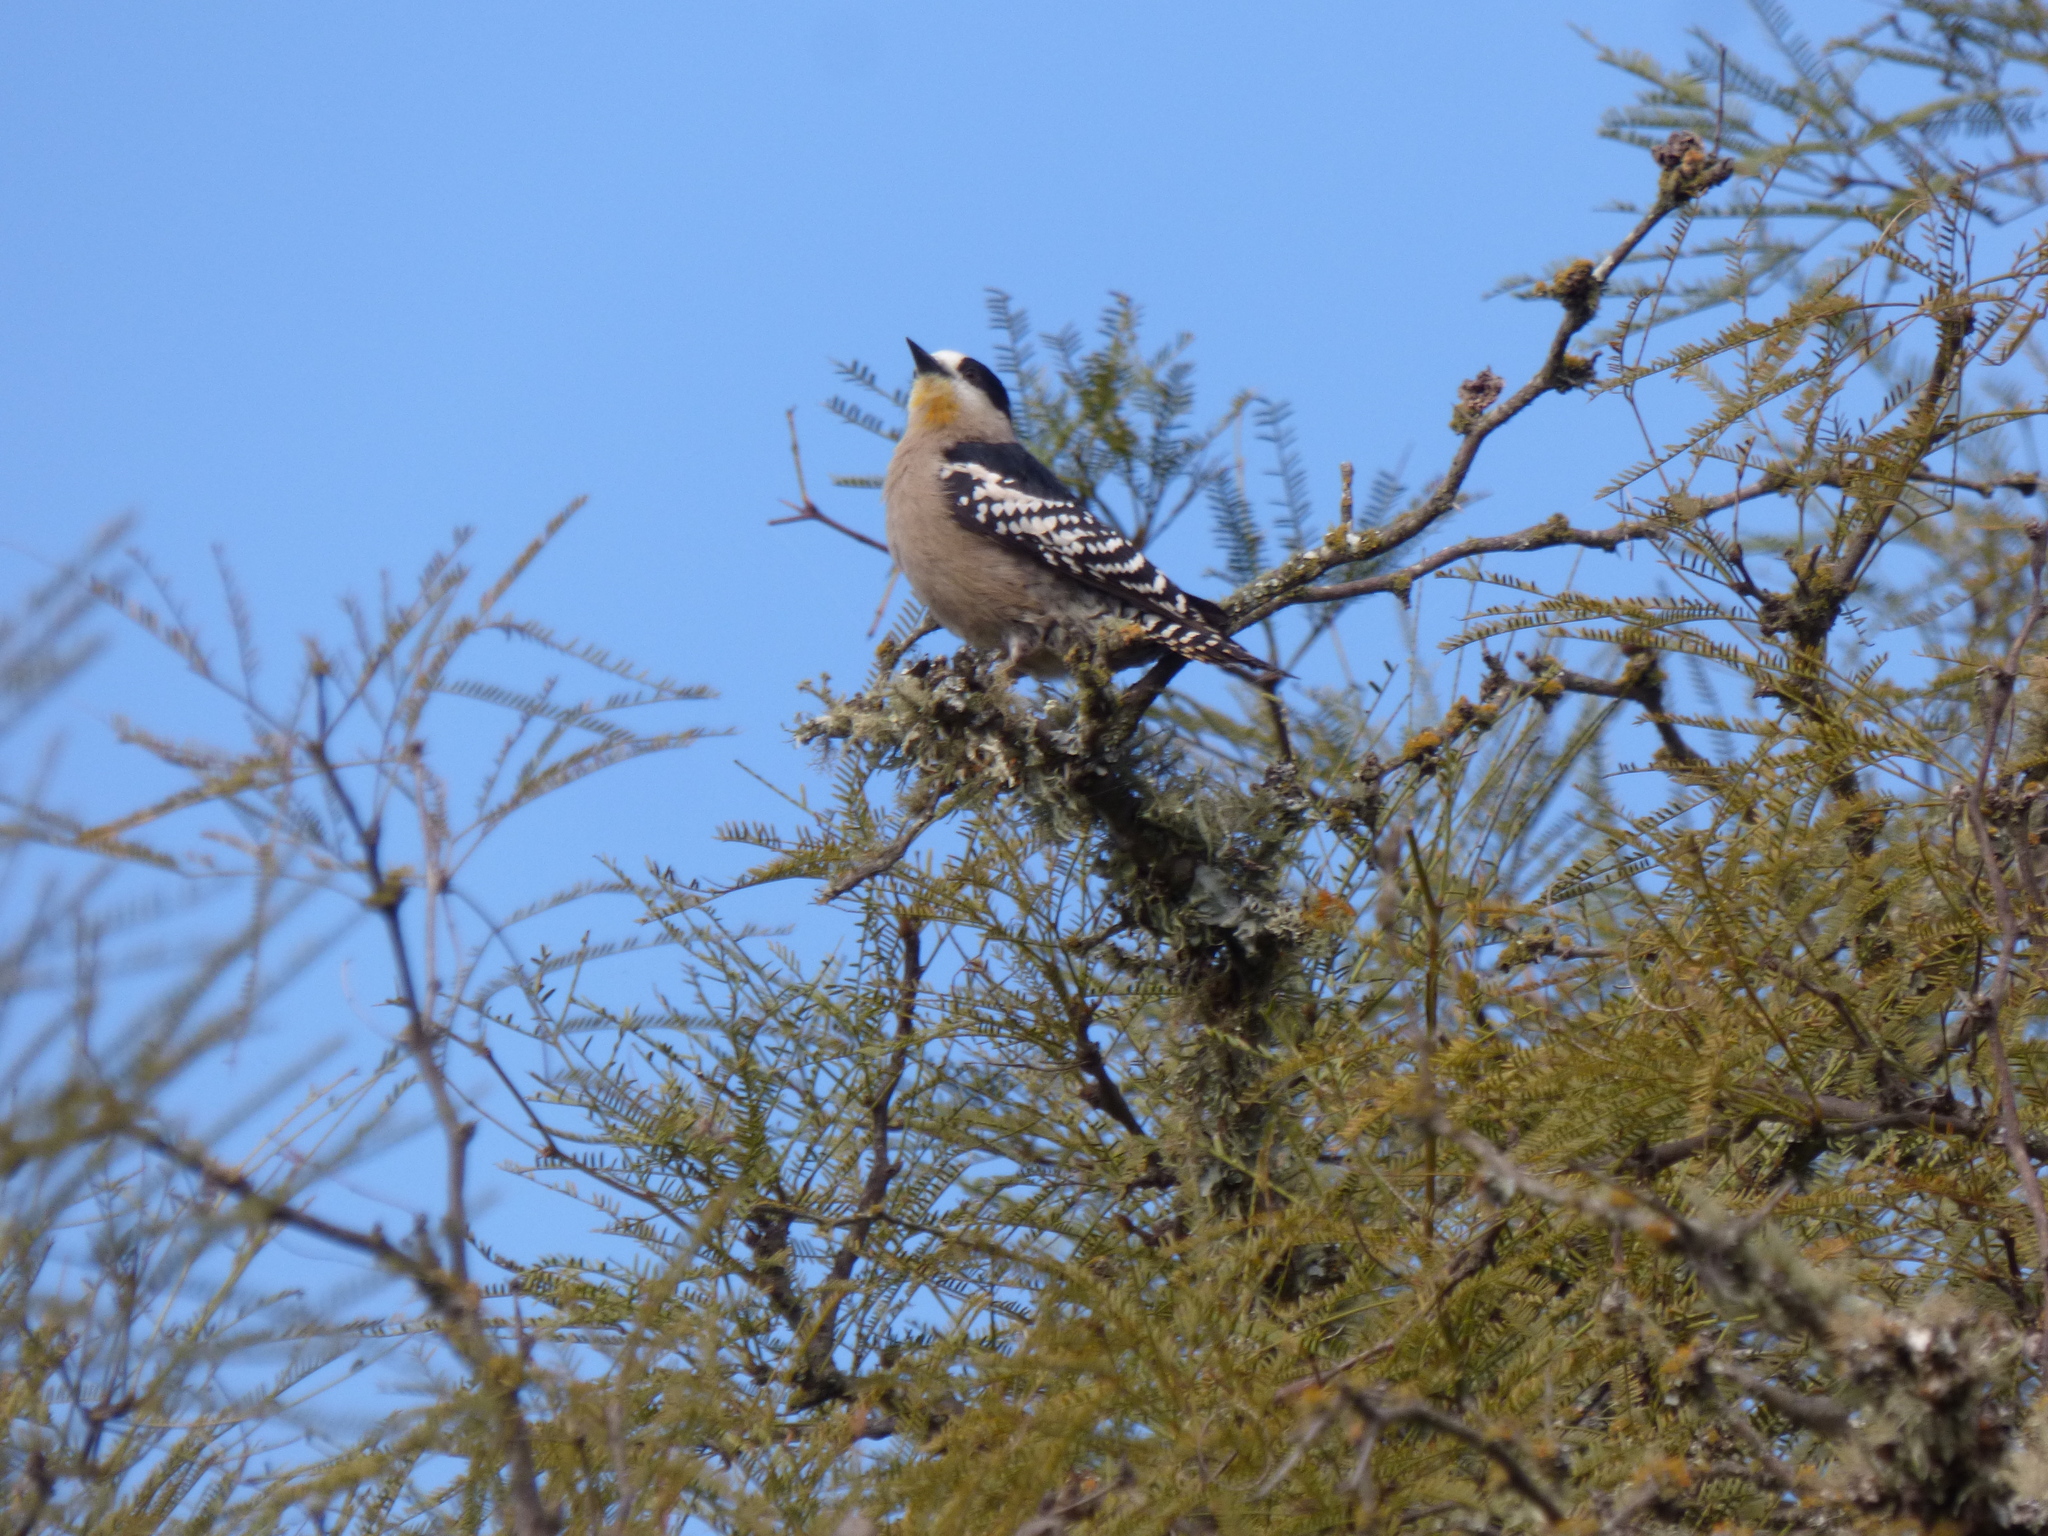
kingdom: Animalia
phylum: Chordata
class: Aves
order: Piciformes
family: Picidae
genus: Melanerpes
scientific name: Melanerpes cactorum
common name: White-fronted woodpecker
